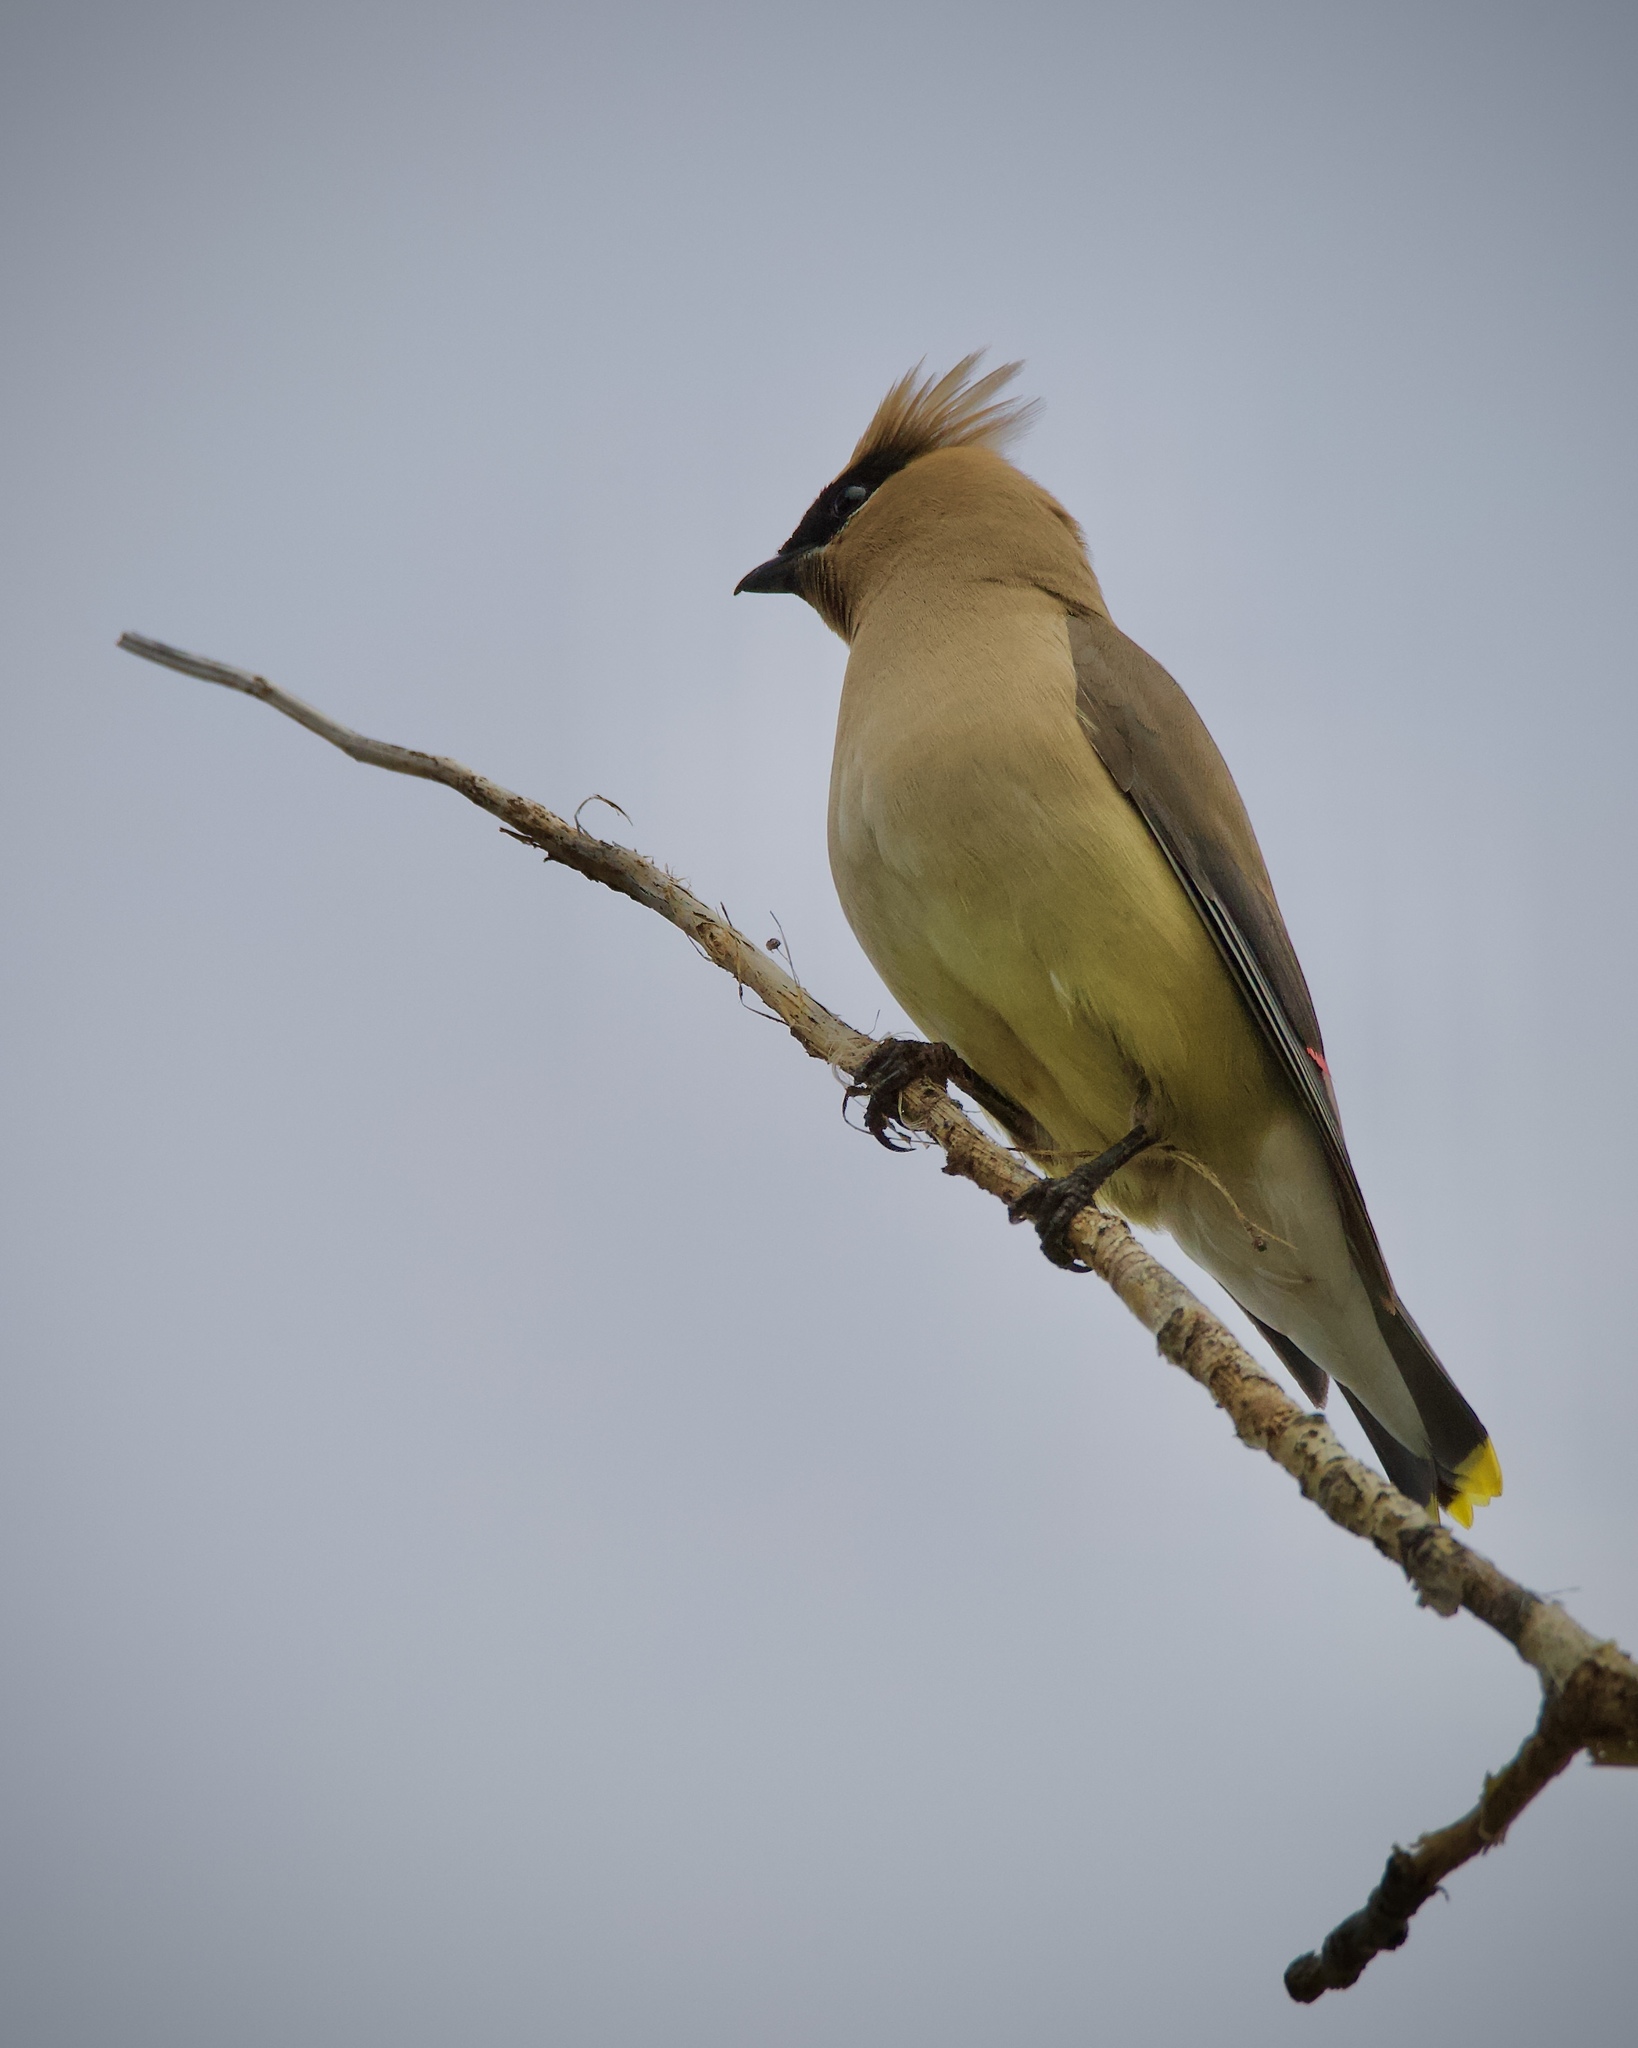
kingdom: Animalia
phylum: Chordata
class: Aves
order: Passeriformes
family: Bombycillidae
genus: Bombycilla
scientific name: Bombycilla cedrorum
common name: Cedar waxwing
